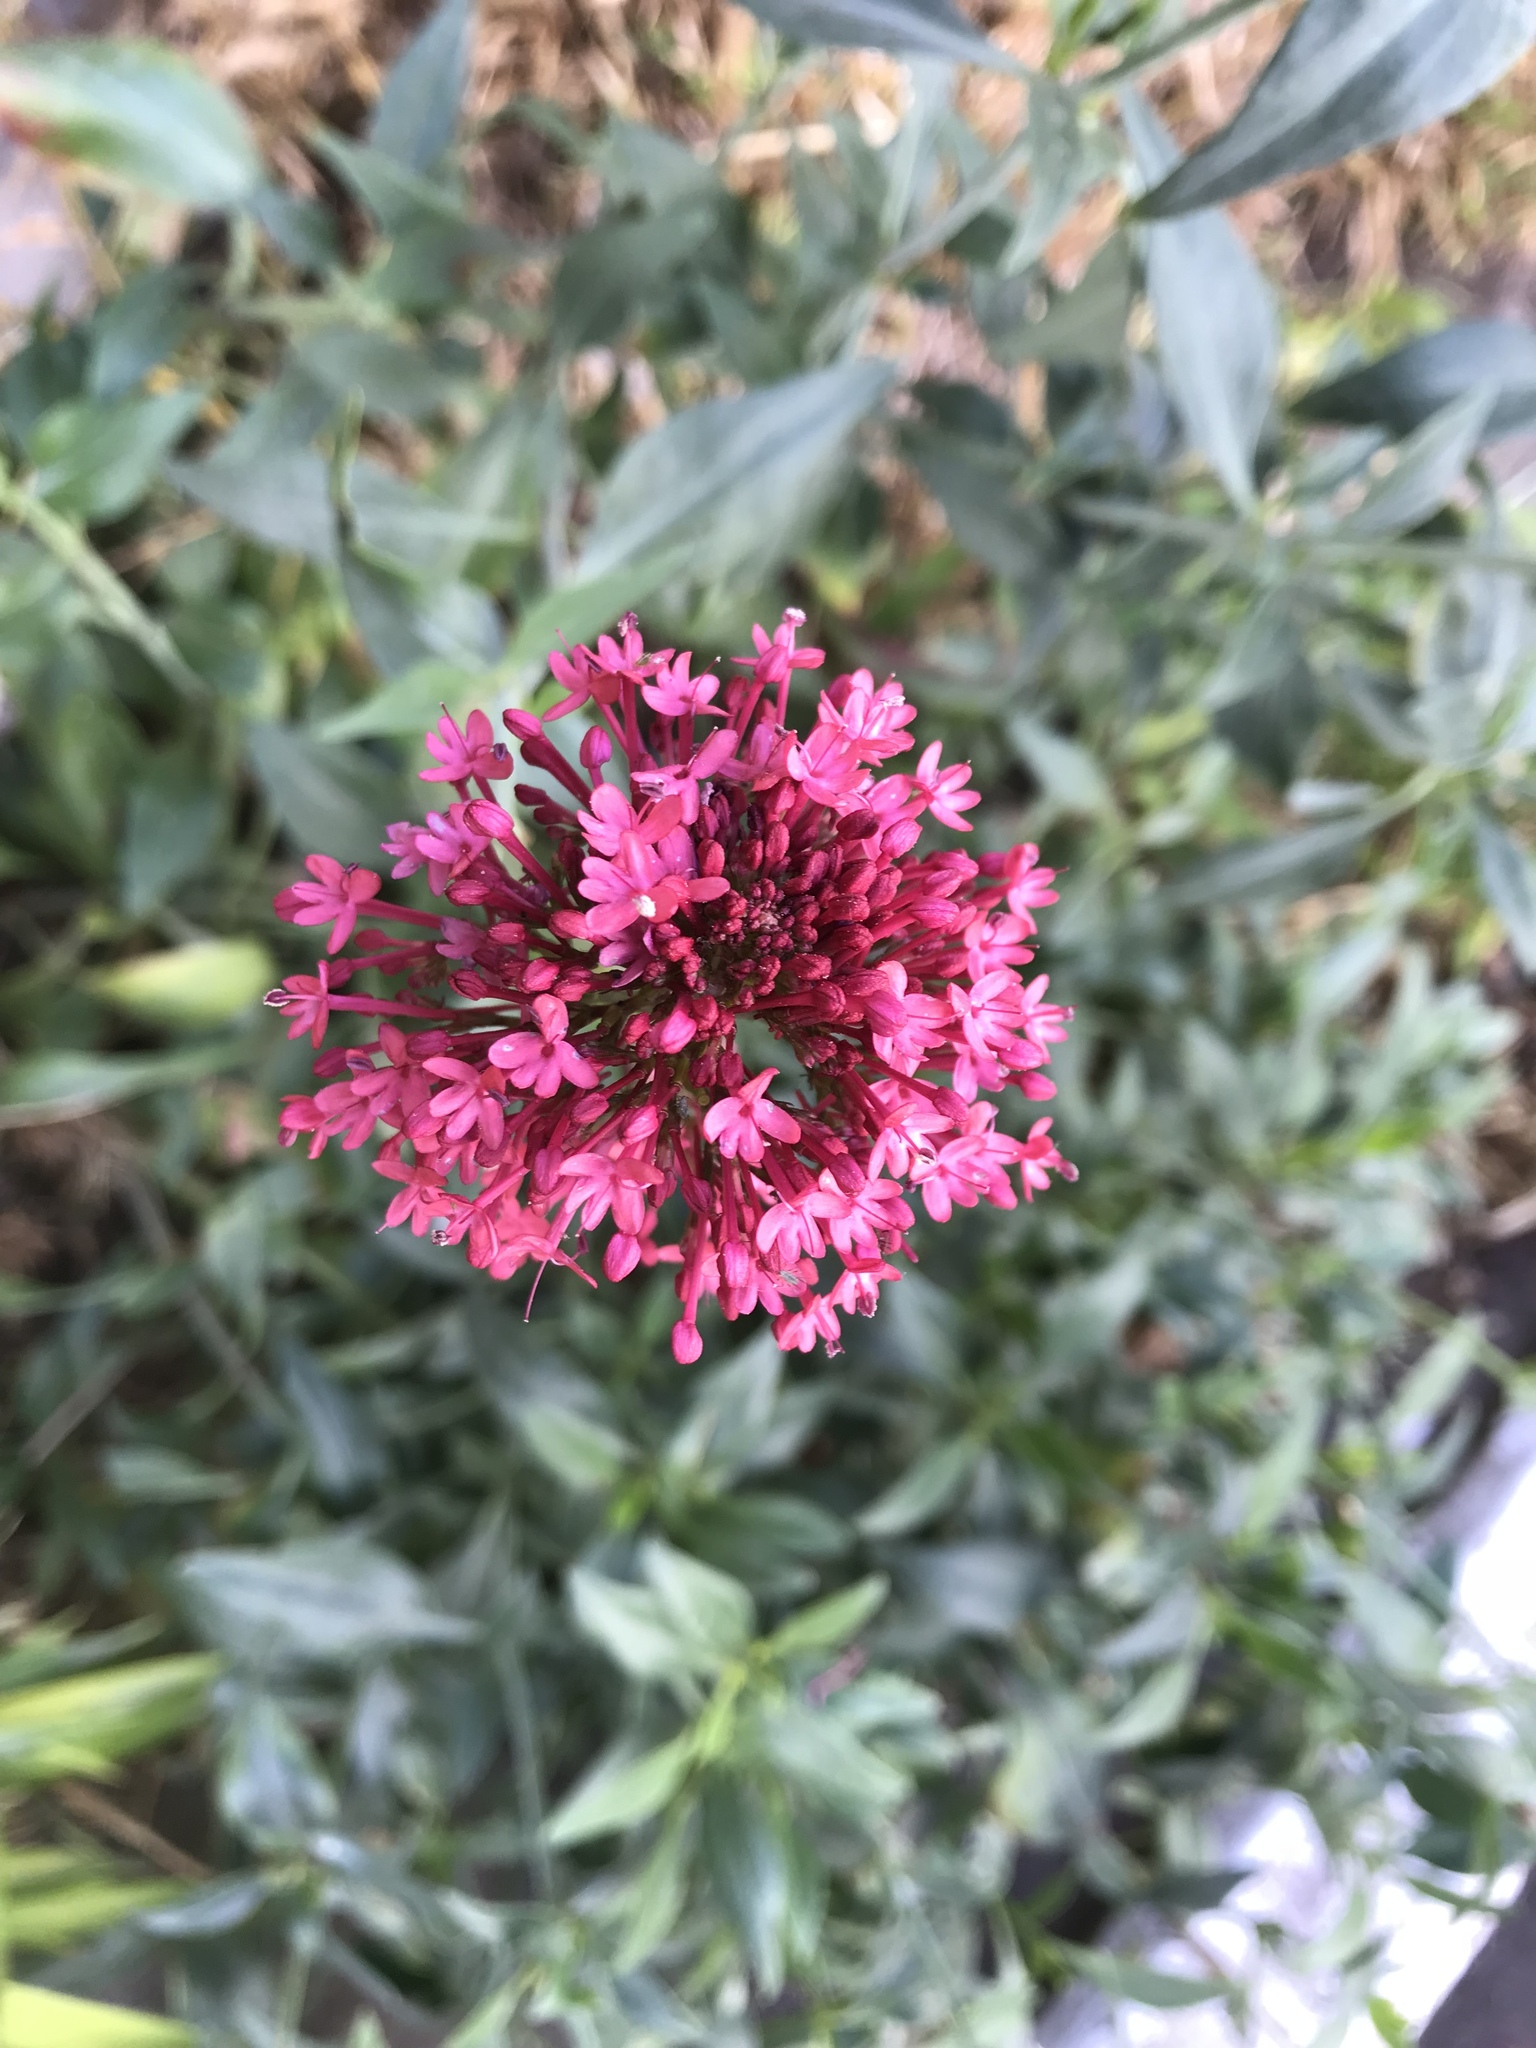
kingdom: Plantae
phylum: Tracheophyta
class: Magnoliopsida
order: Dipsacales
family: Caprifoliaceae
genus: Centranthus
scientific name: Centranthus ruber
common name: Red valerian
